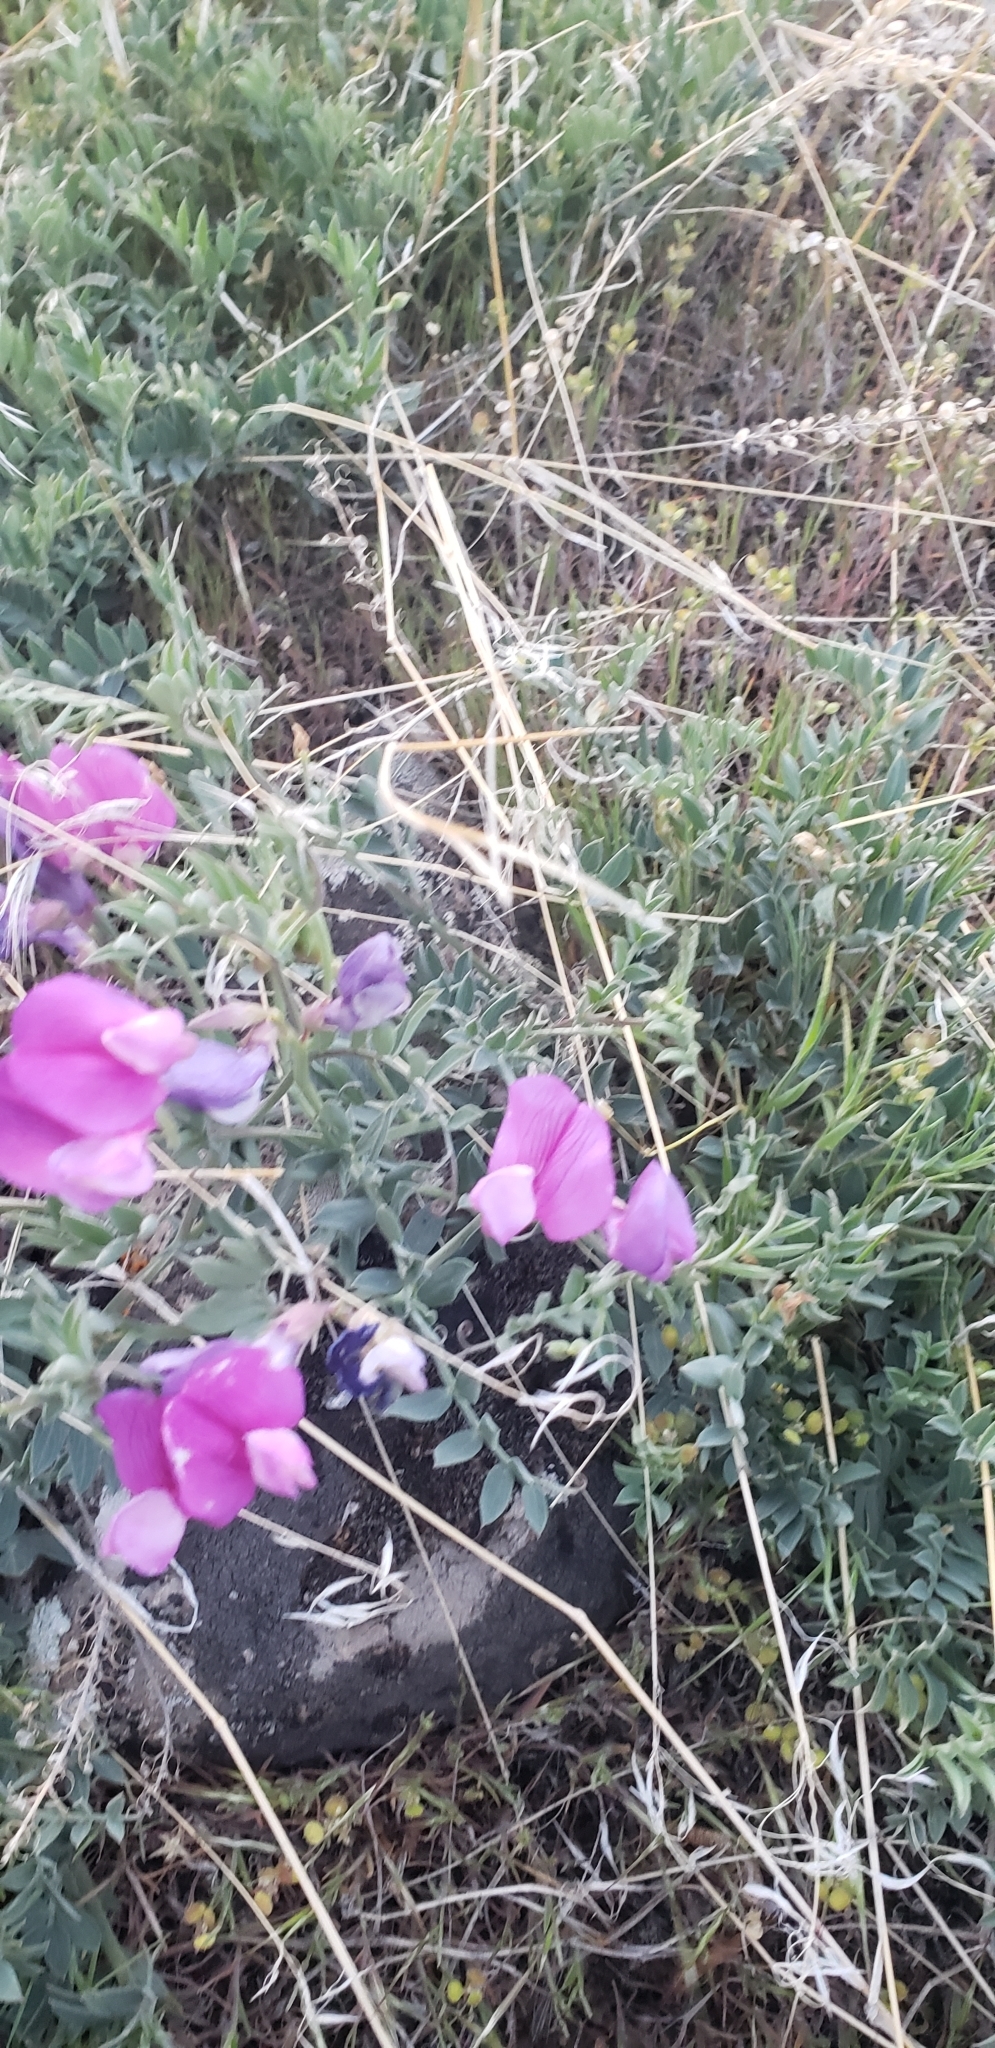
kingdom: Plantae
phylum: Tracheophyta
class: Magnoliopsida
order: Fabales
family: Fabaceae
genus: Lathyrus
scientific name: Lathyrus brachycalyx
